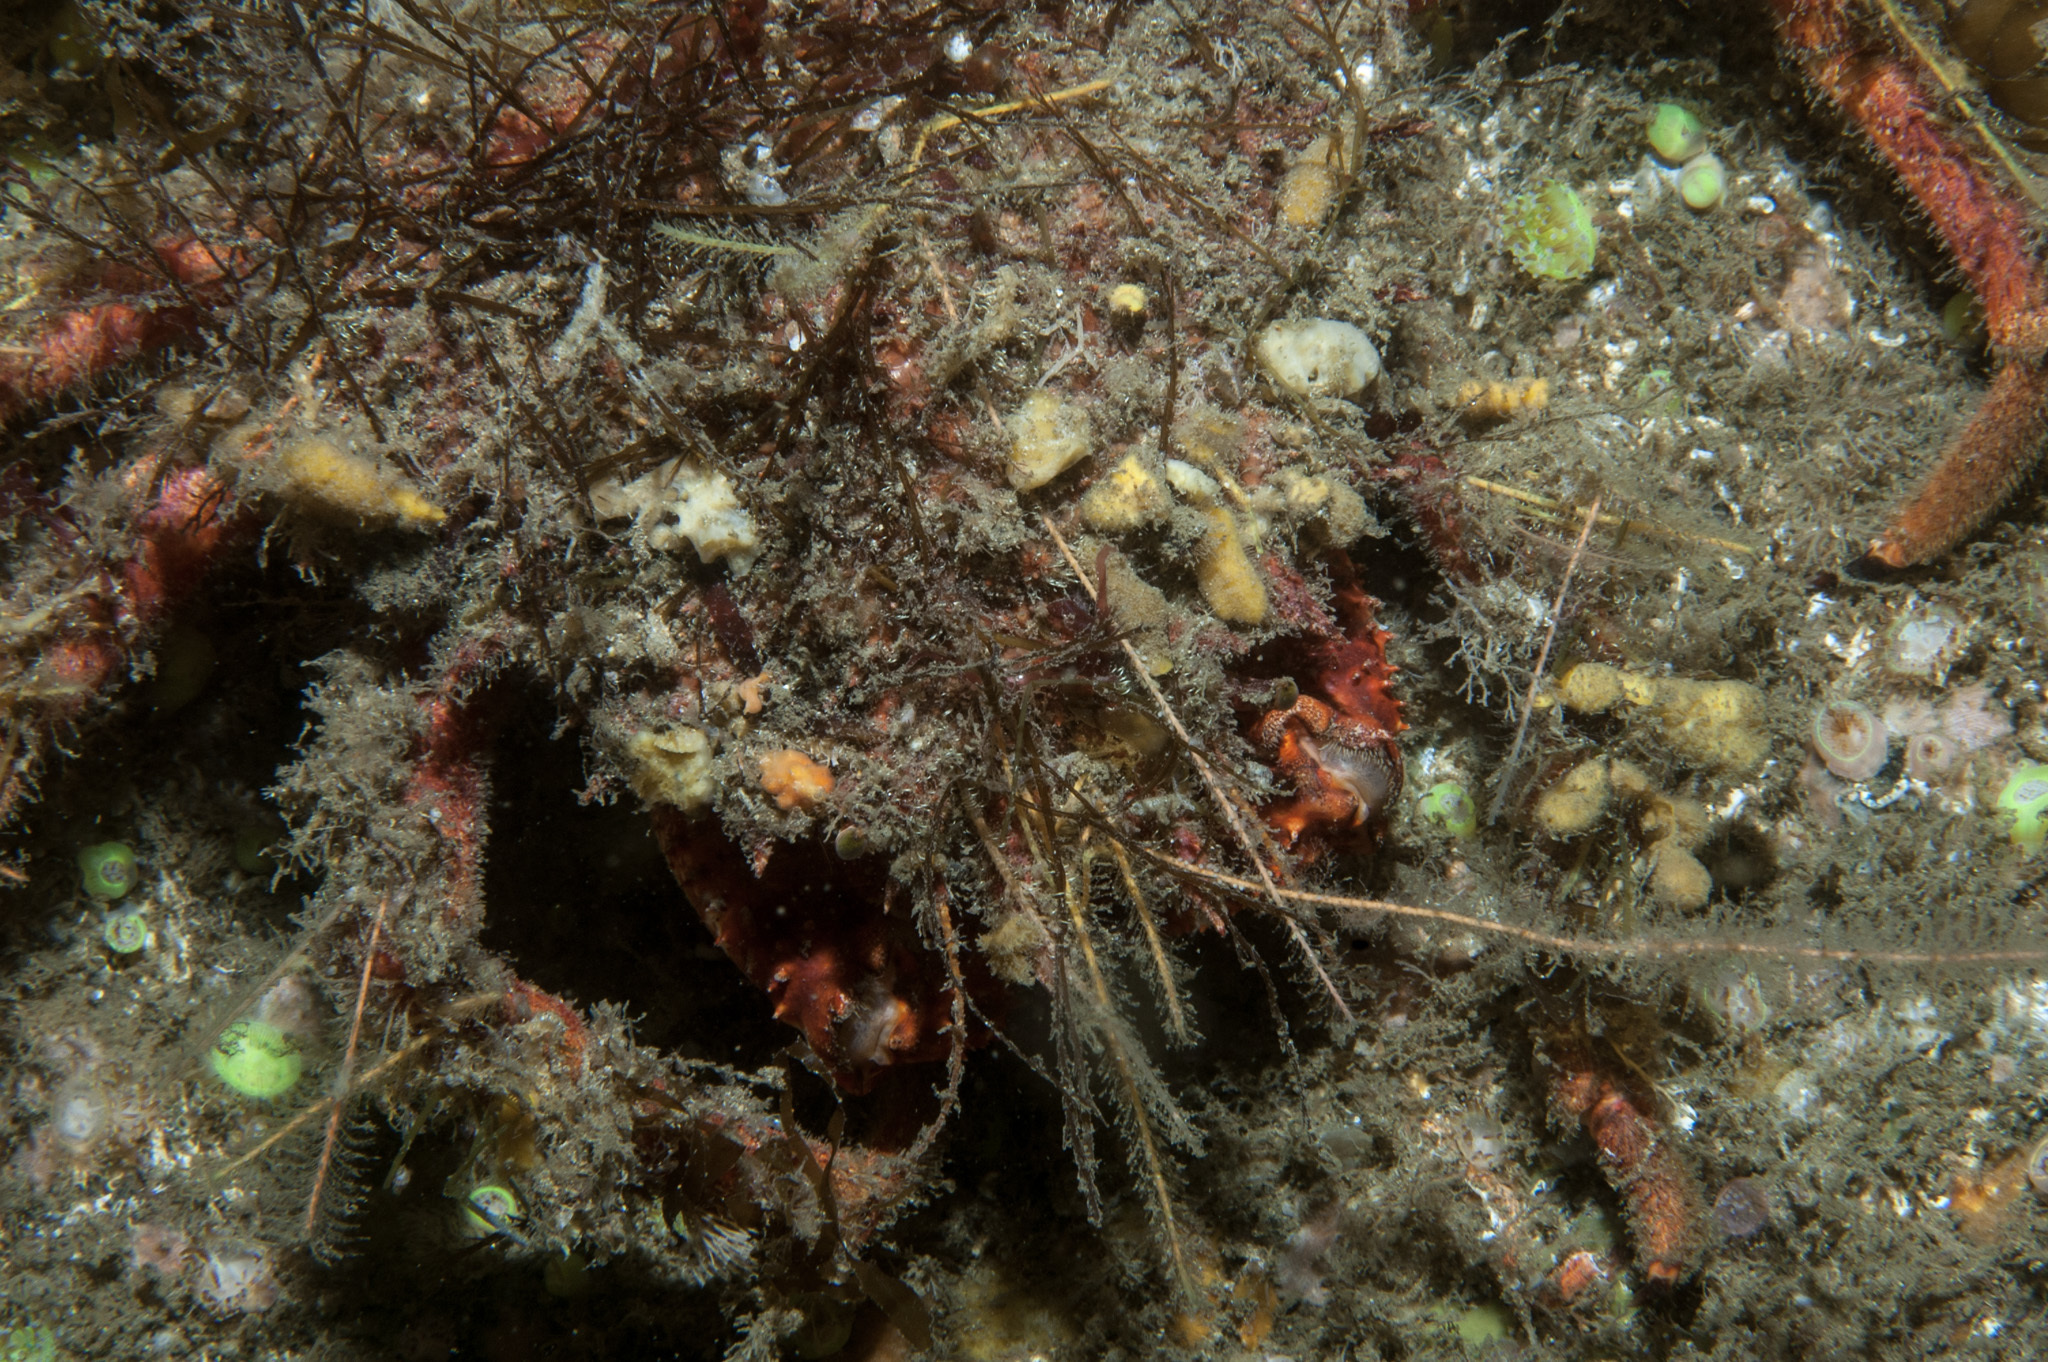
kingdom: Animalia
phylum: Arthropoda
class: Malacostraca
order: Decapoda
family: Majidae
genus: Maja
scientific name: Maja brachydactyla
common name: Common spider crab
